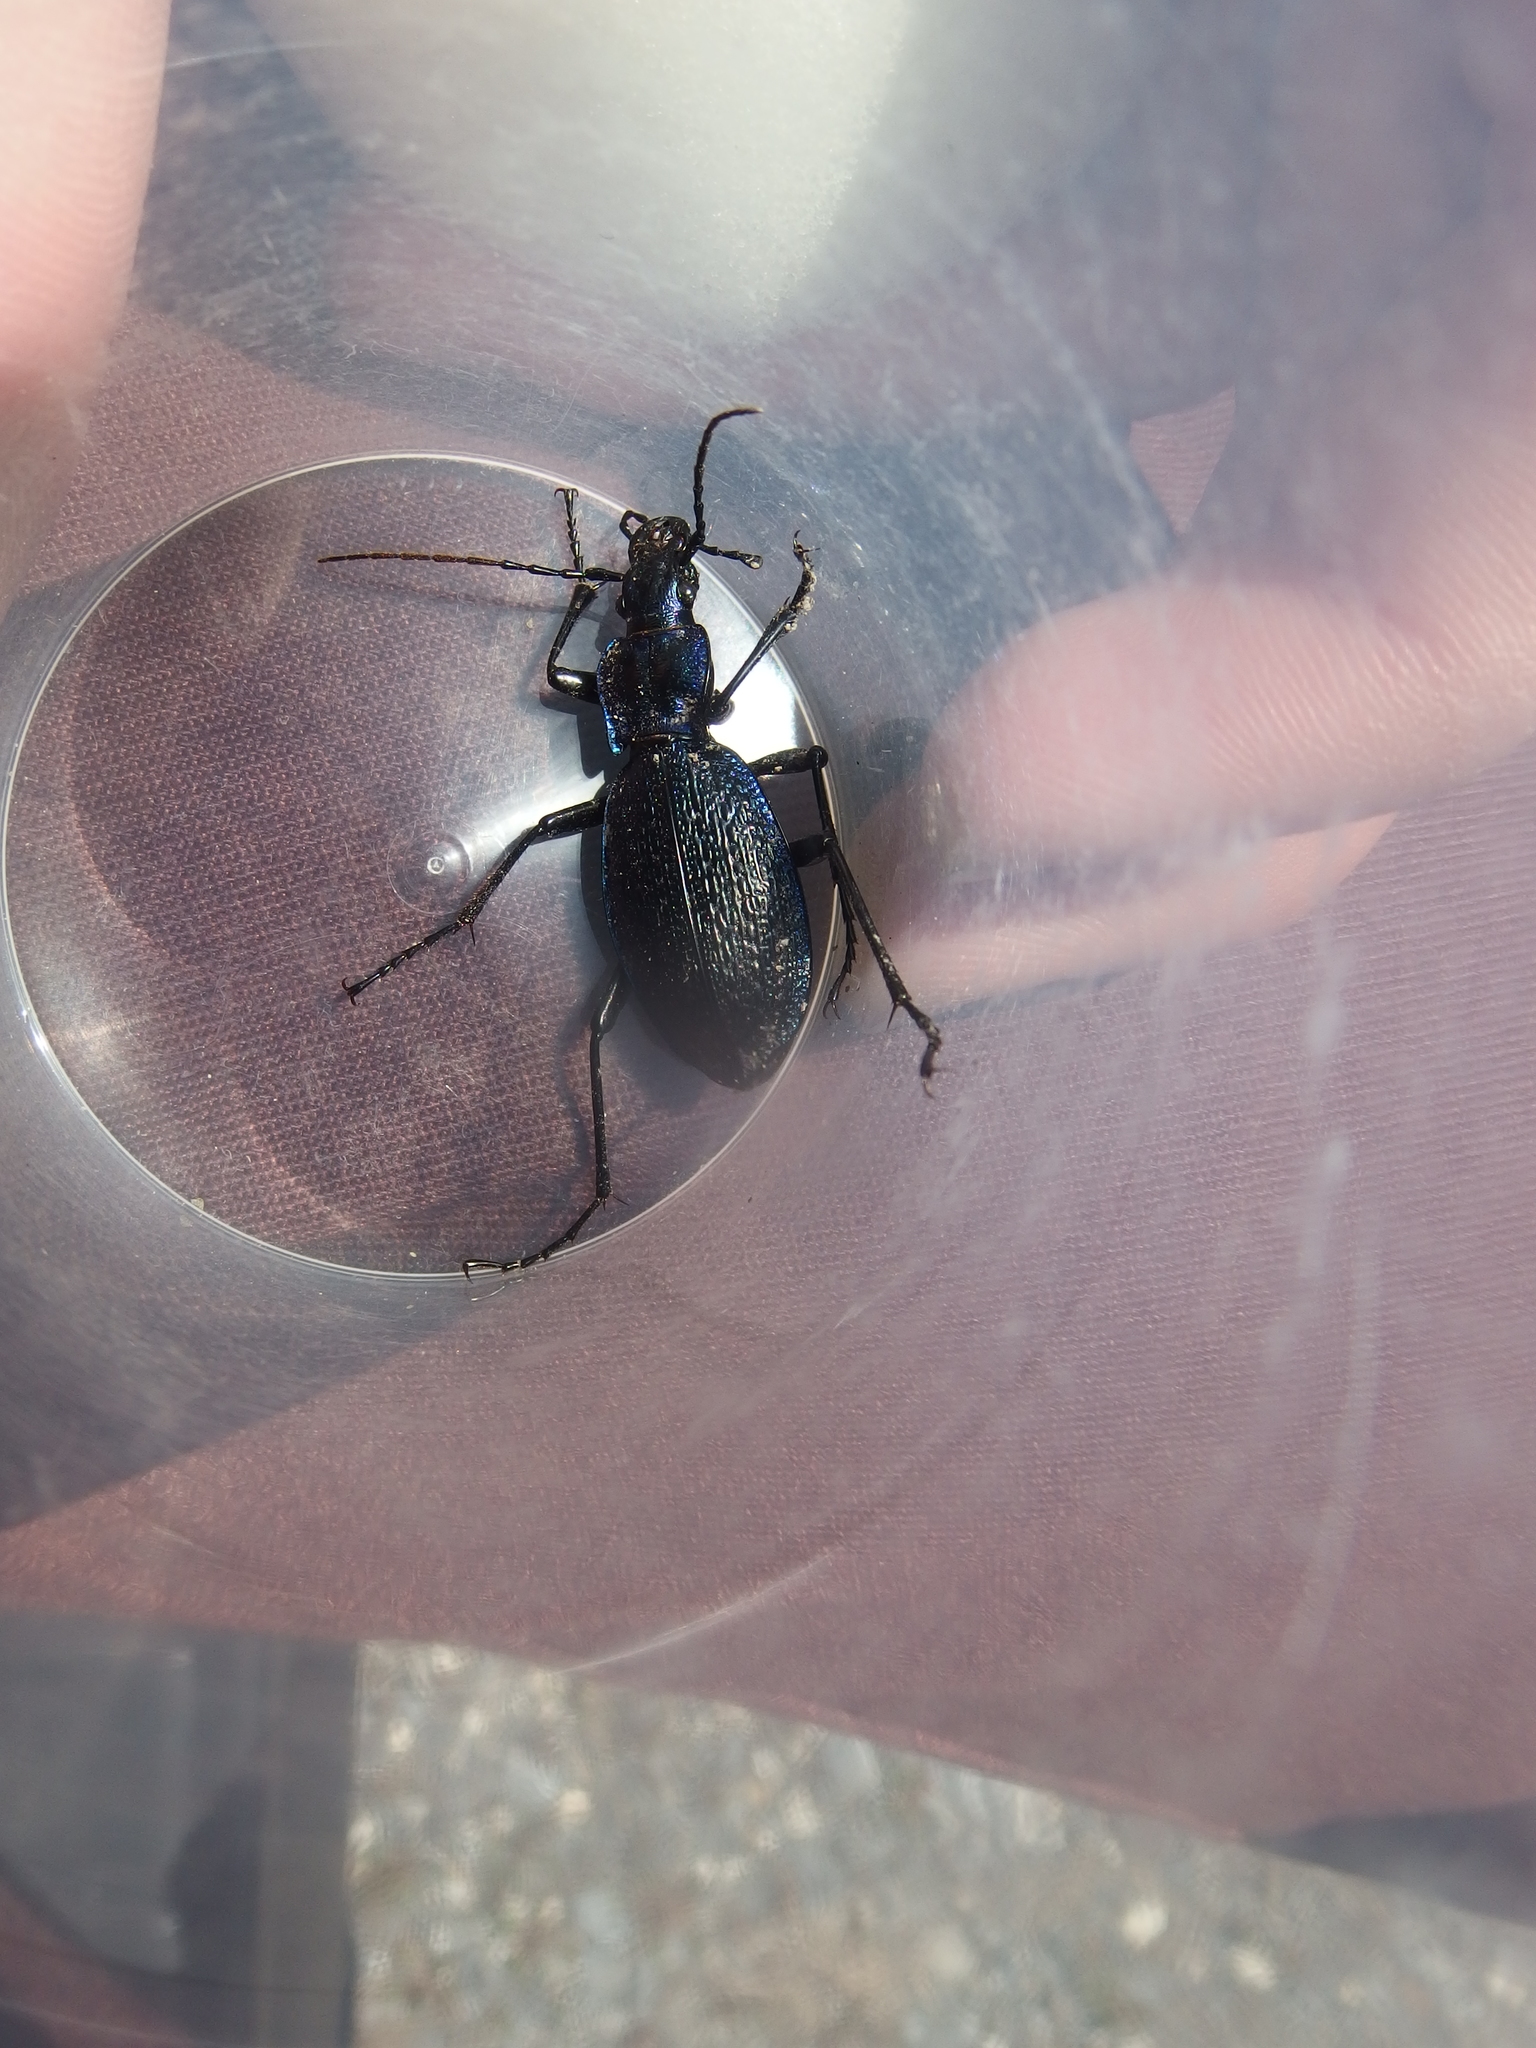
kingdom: Animalia
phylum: Arthropoda
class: Insecta
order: Coleoptera
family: Carabidae
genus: Carabus
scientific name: Carabus intricatus
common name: Blue ground beetle
